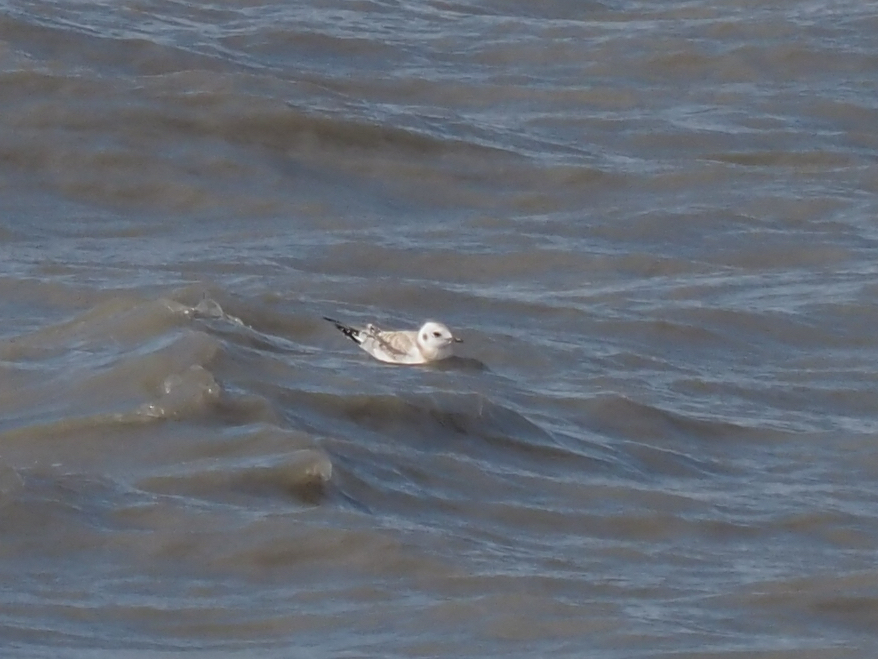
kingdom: Animalia
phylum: Chordata
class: Aves
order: Charadriiformes
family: Laridae
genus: Chroicocephalus
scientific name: Chroicocephalus philadelphia
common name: Bonaparte's gull
